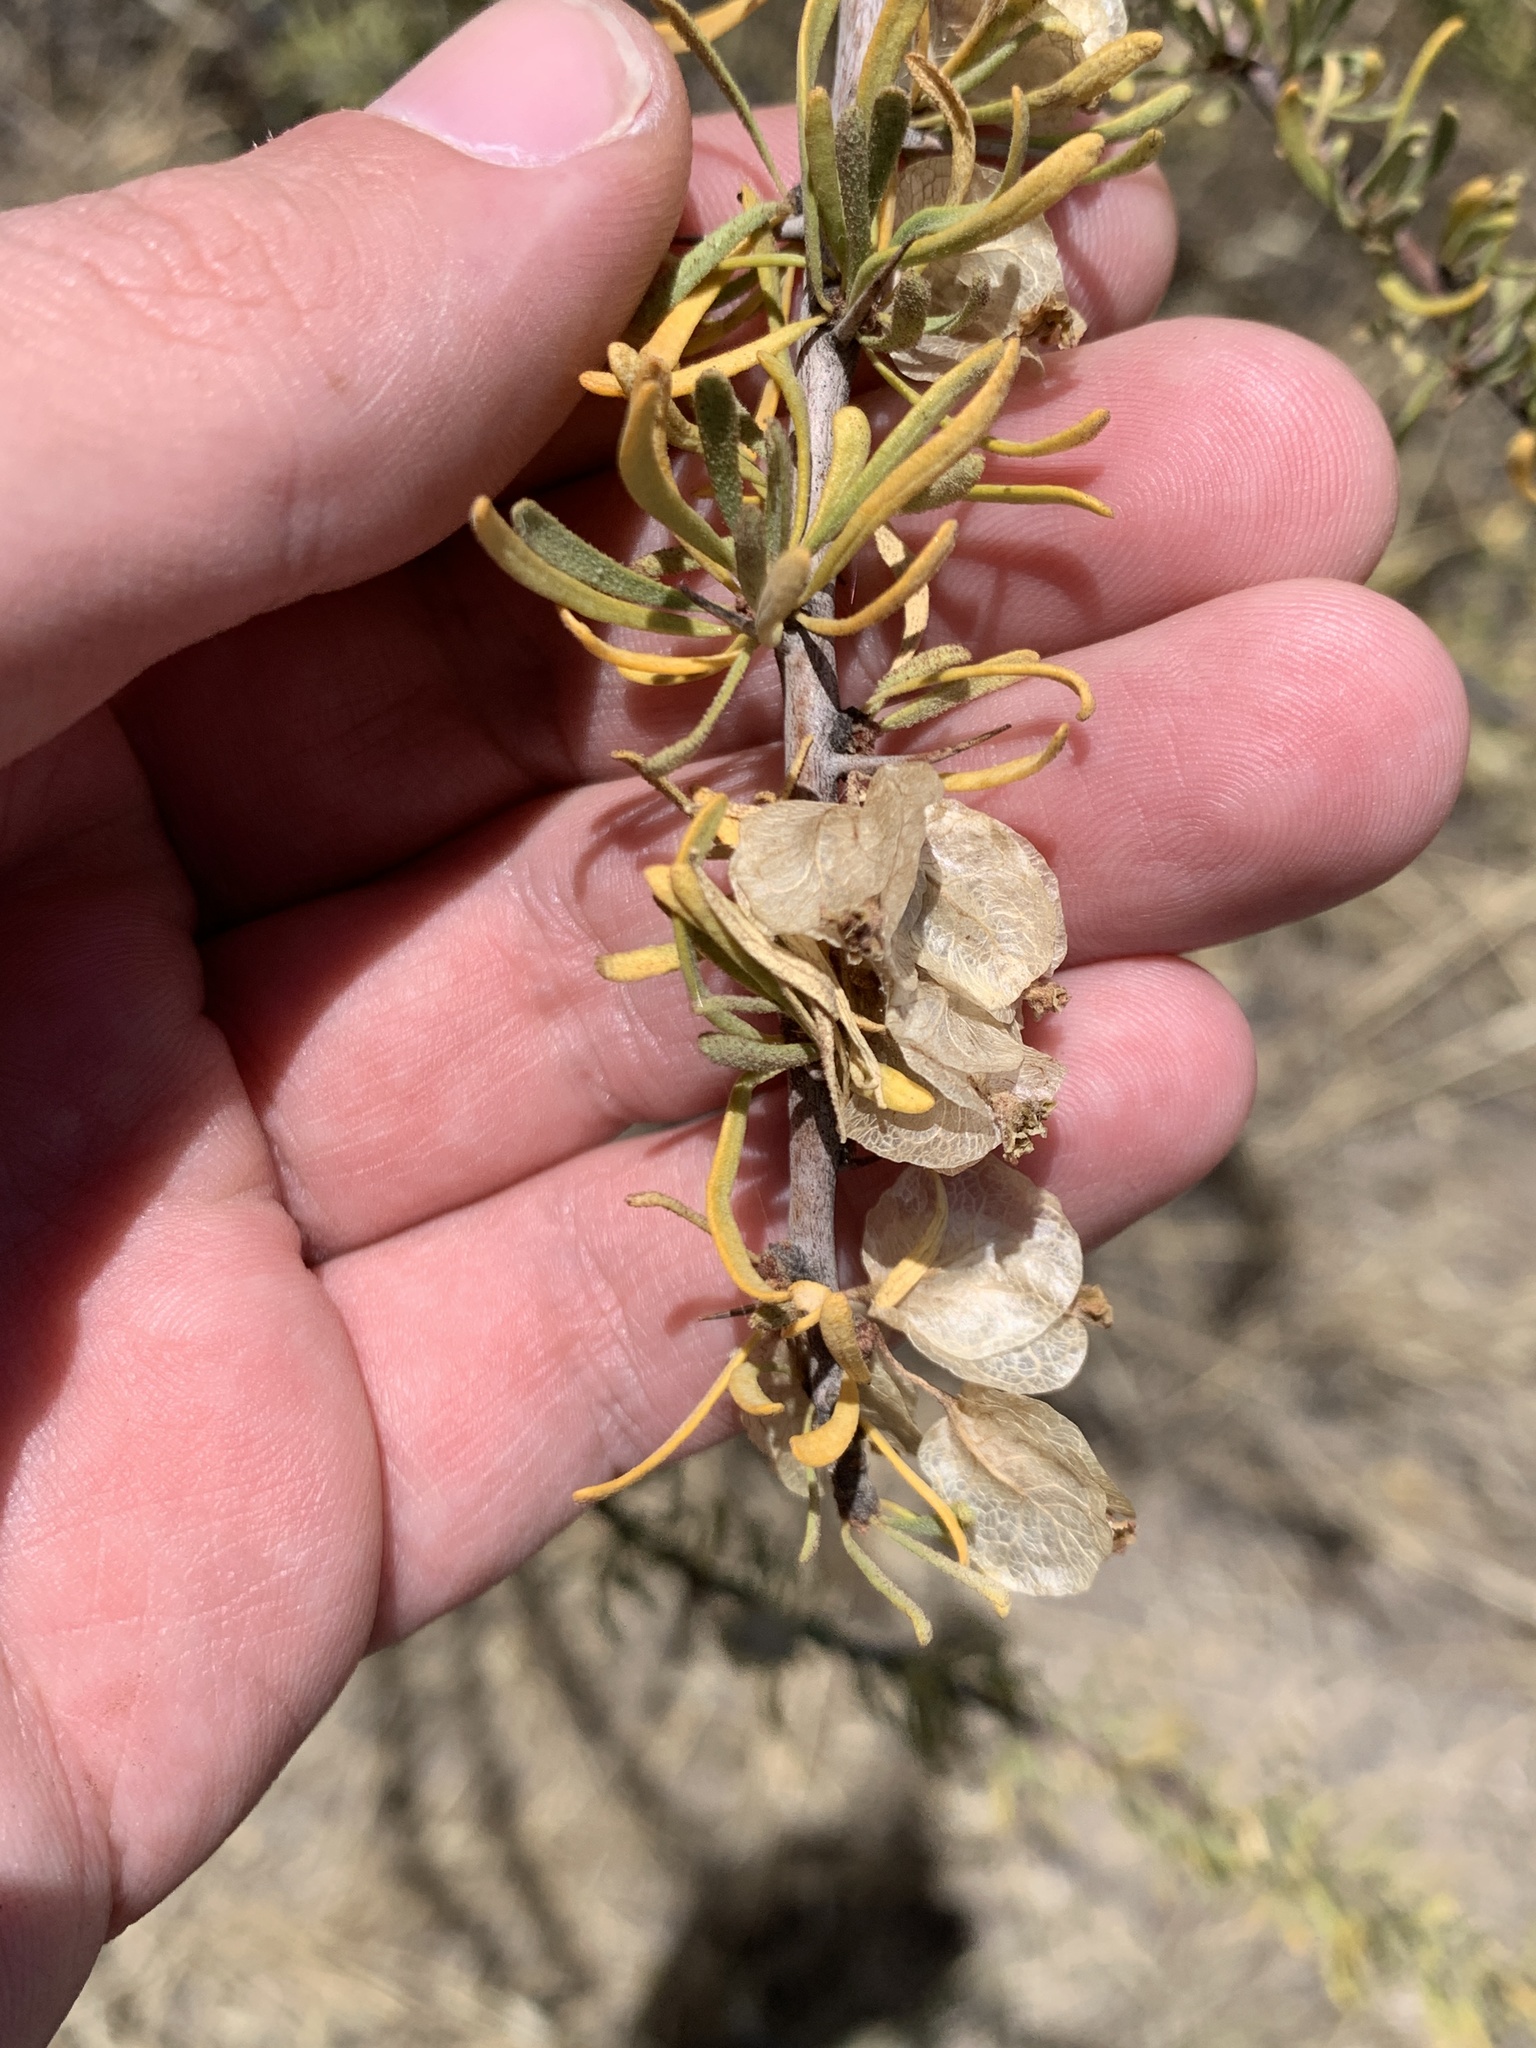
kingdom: Plantae
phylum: Tracheophyta
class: Magnoliopsida
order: Caryophyllales
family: Nyctaginaceae
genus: Bougainvillea
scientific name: Bougainvillea spinosa
